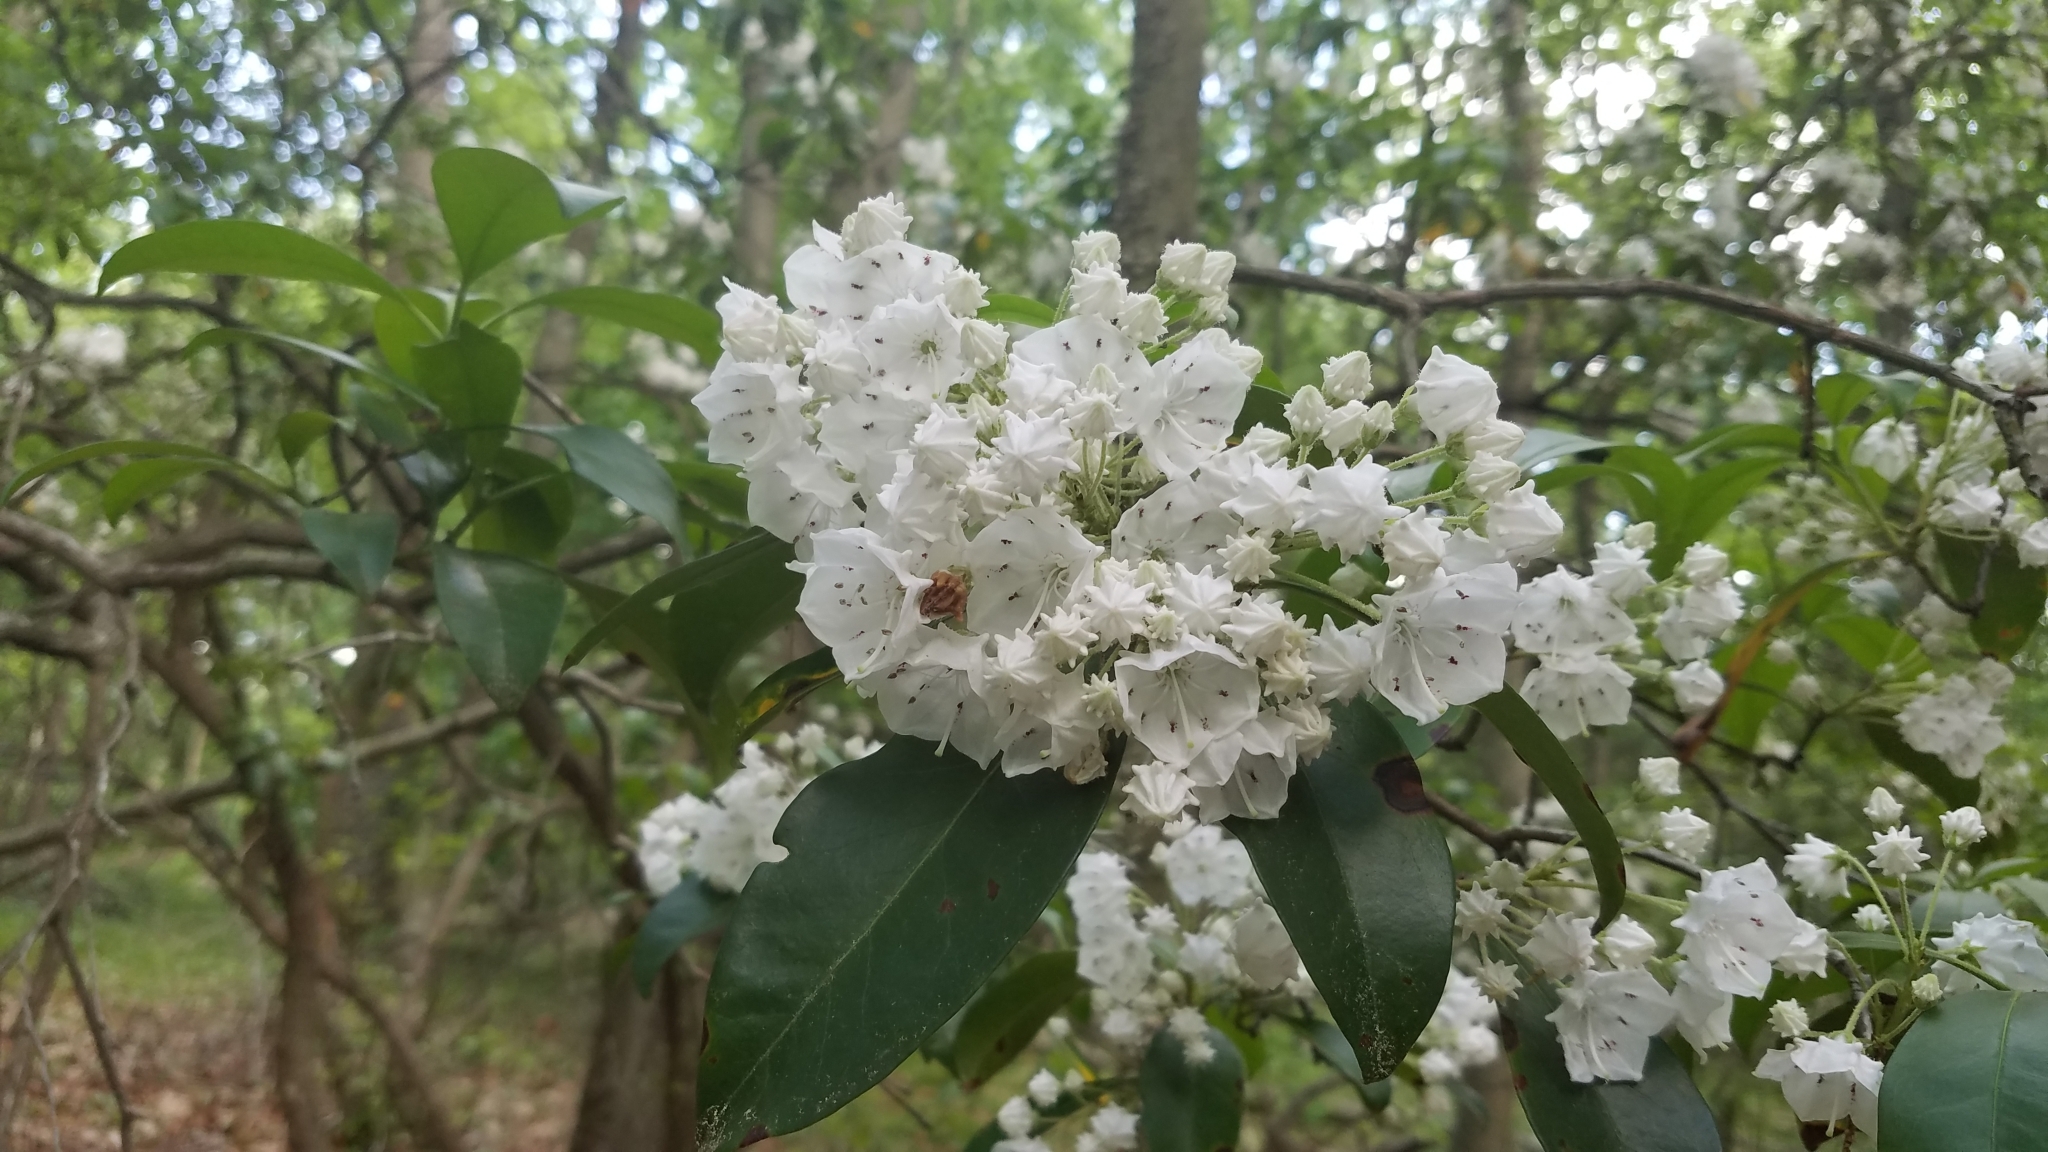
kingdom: Plantae
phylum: Tracheophyta
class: Magnoliopsida
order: Ericales
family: Ericaceae
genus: Kalmia
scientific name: Kalmia latifolia
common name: Mountain-laurel
